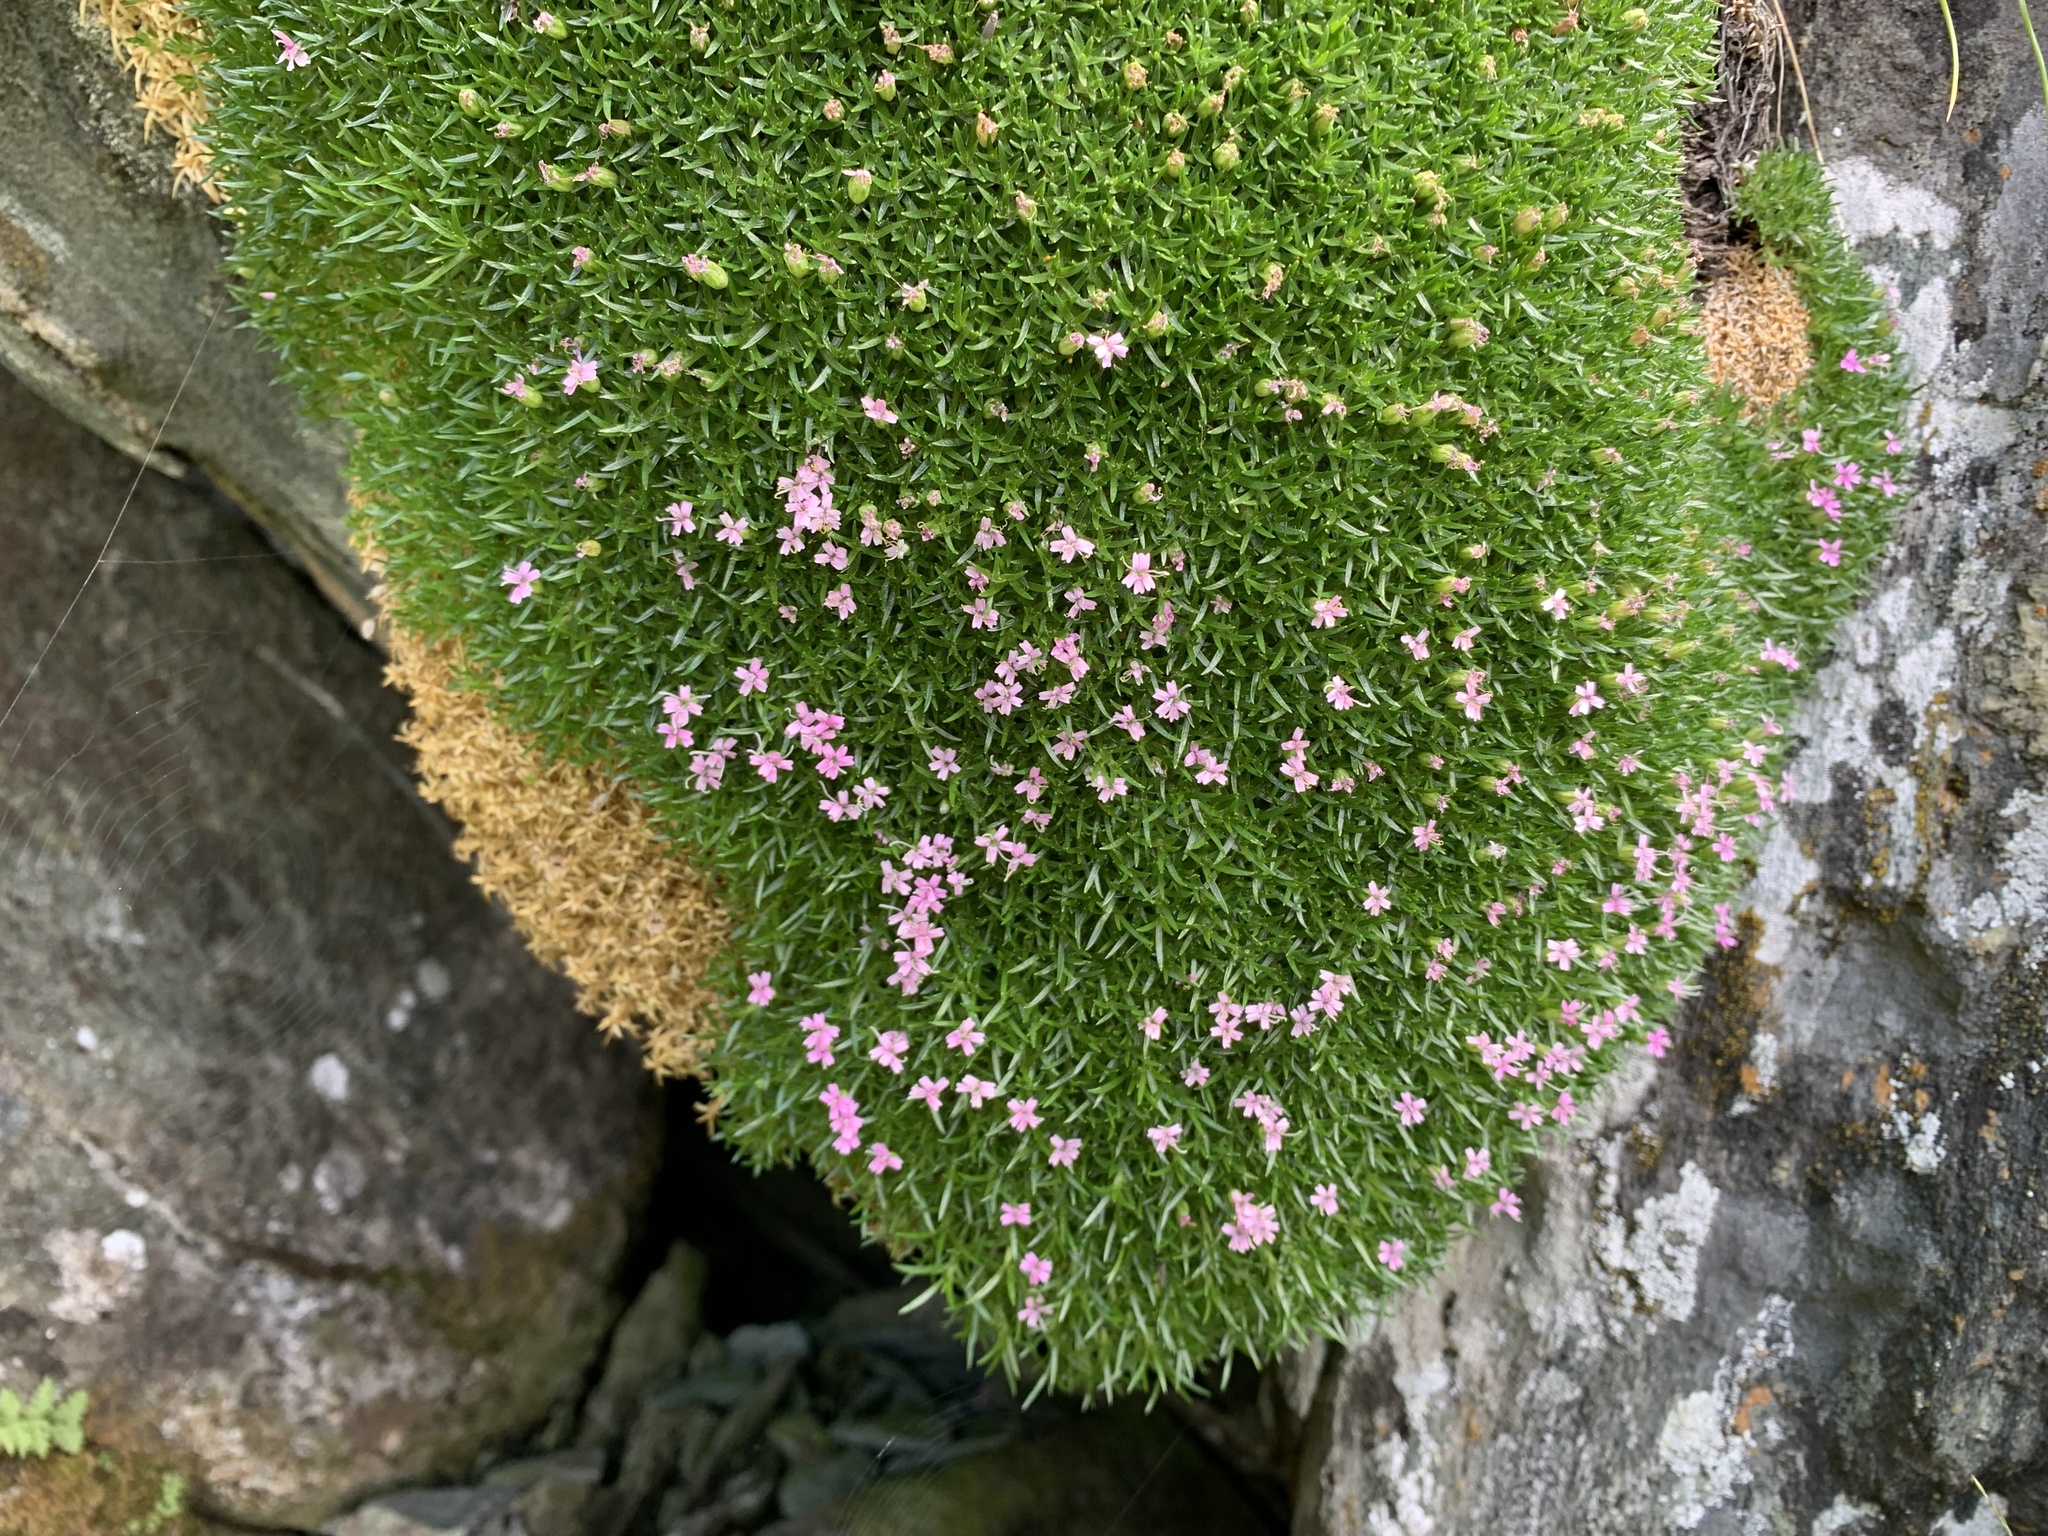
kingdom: Plantae
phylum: Tracheophyta
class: Magnoliopsida
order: Caryophyllales
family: Caryophyllaceae
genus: Silene
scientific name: Silene acaulis
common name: Moss campion
